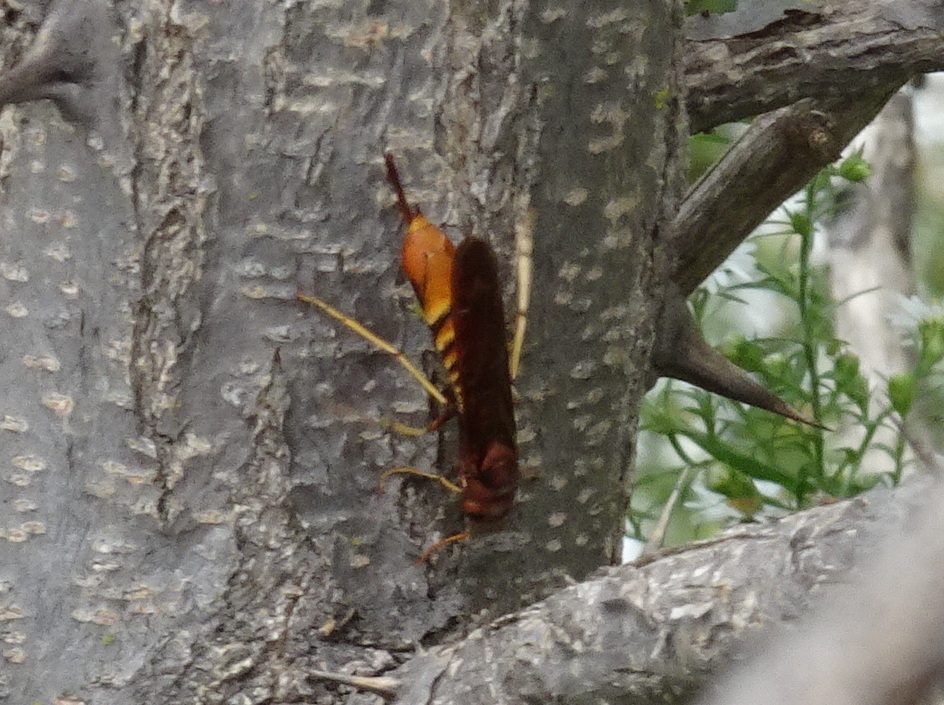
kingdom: Animalia
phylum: Arthropoda
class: Insecta
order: Hymenoptera
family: Siricidae
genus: Tremex
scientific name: Tremex columba
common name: Wasp
